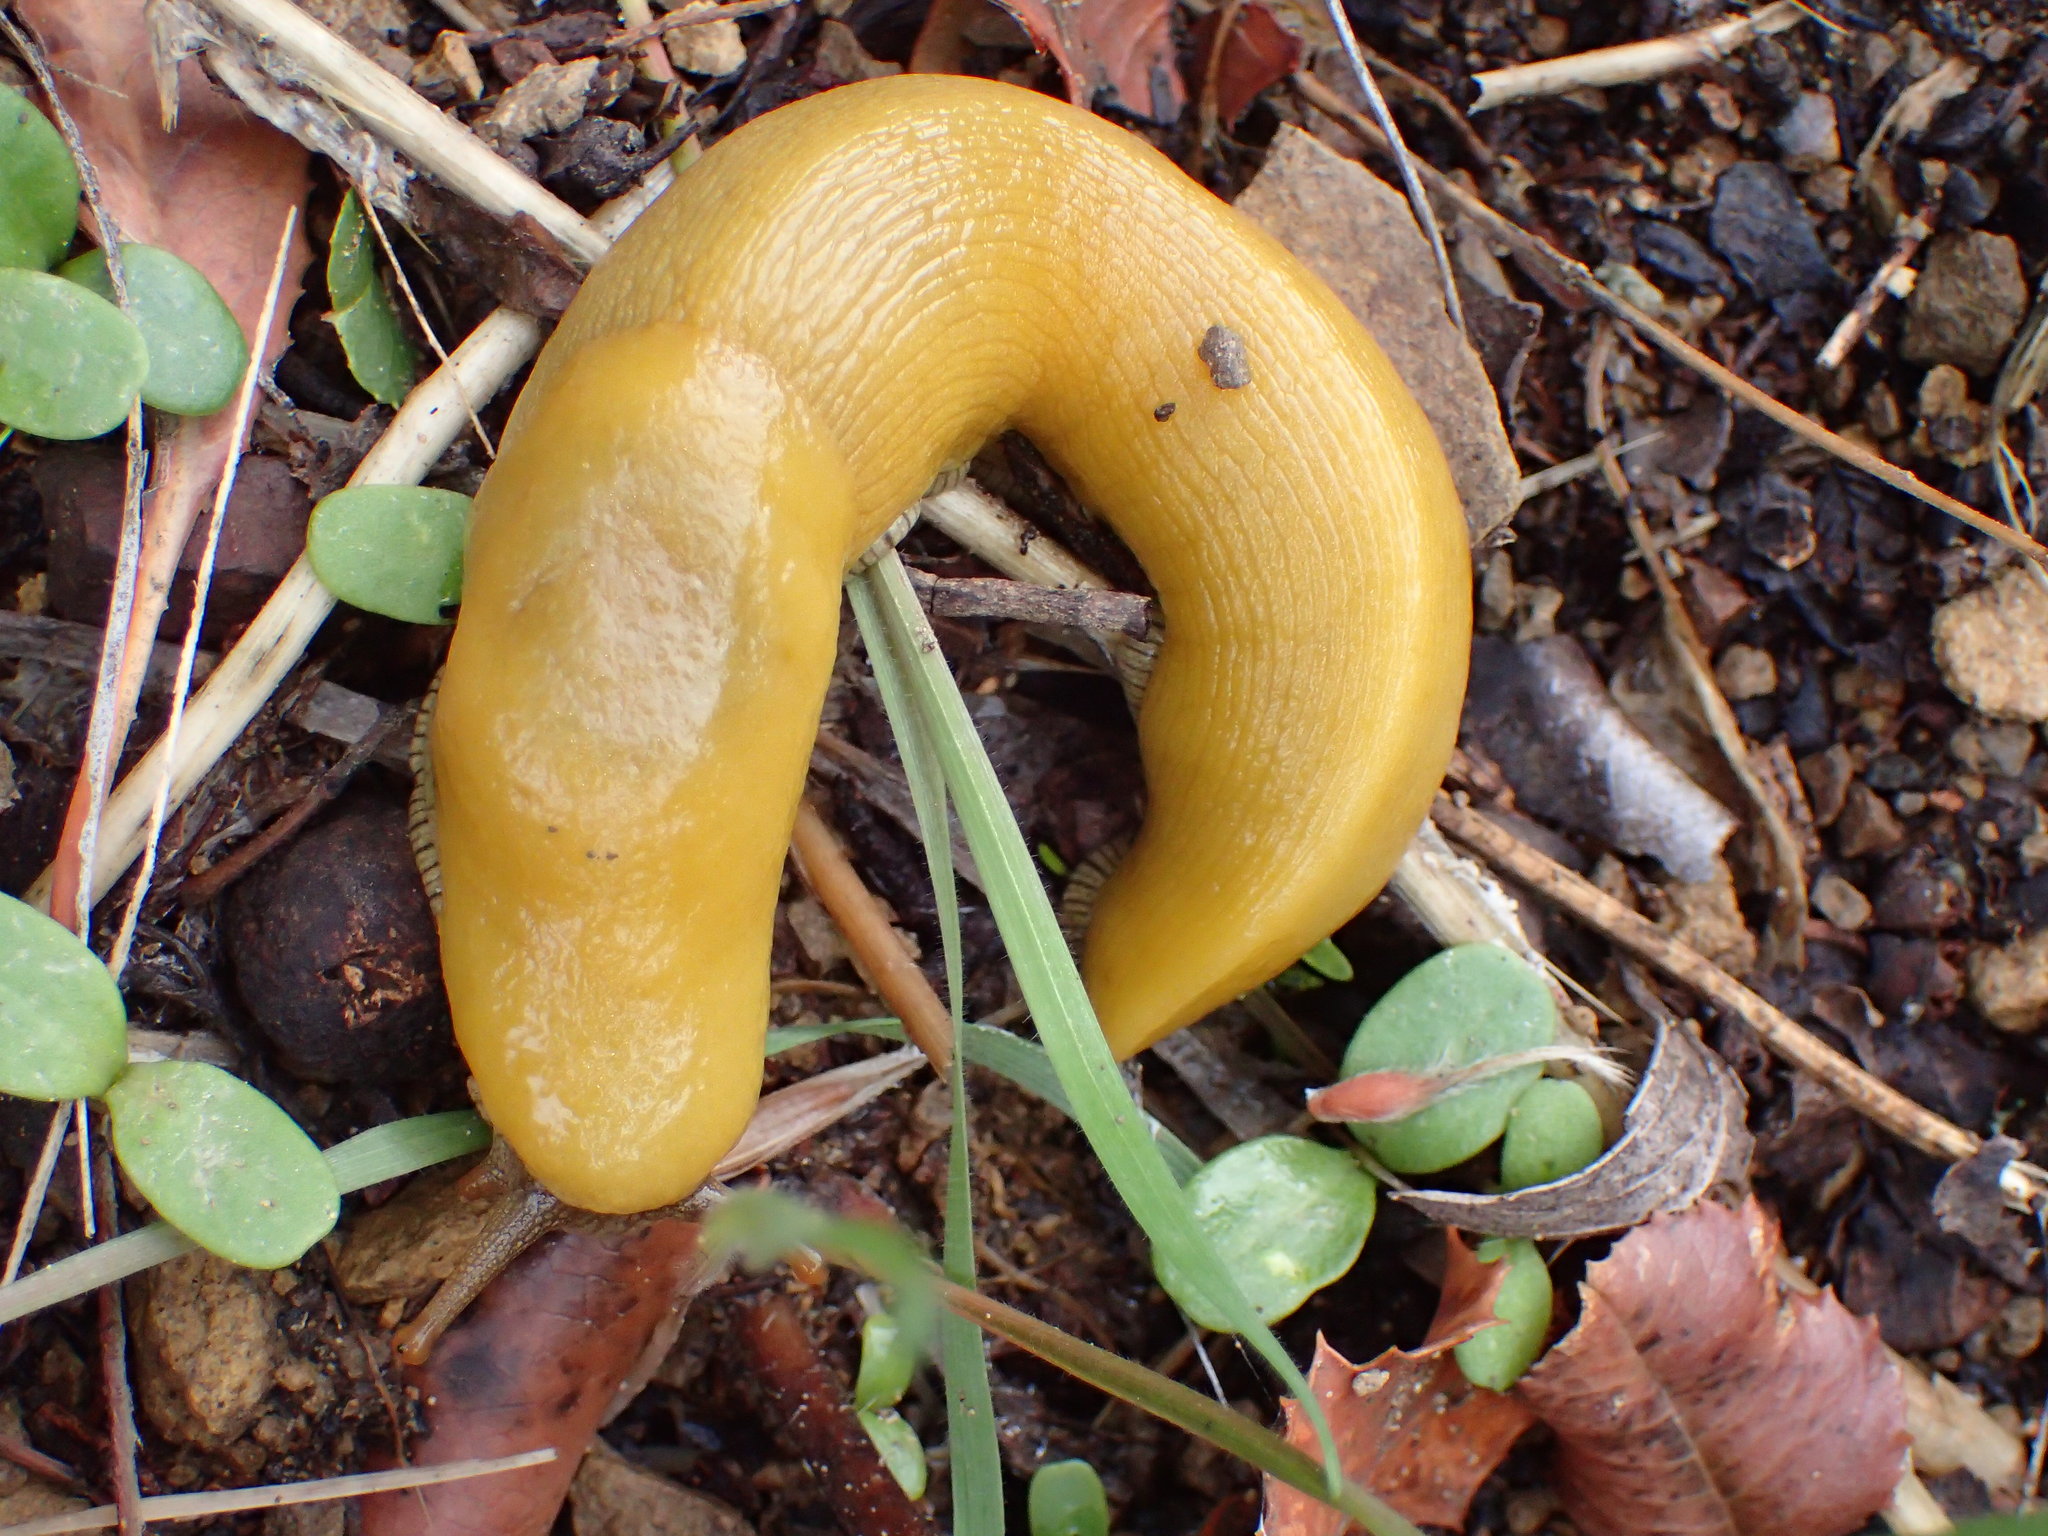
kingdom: Animalia
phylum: Mollusca
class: Gastropoda
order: Stylommatophora
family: Ariolimacidae
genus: Ariolimax
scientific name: Ariolimax stramineus
